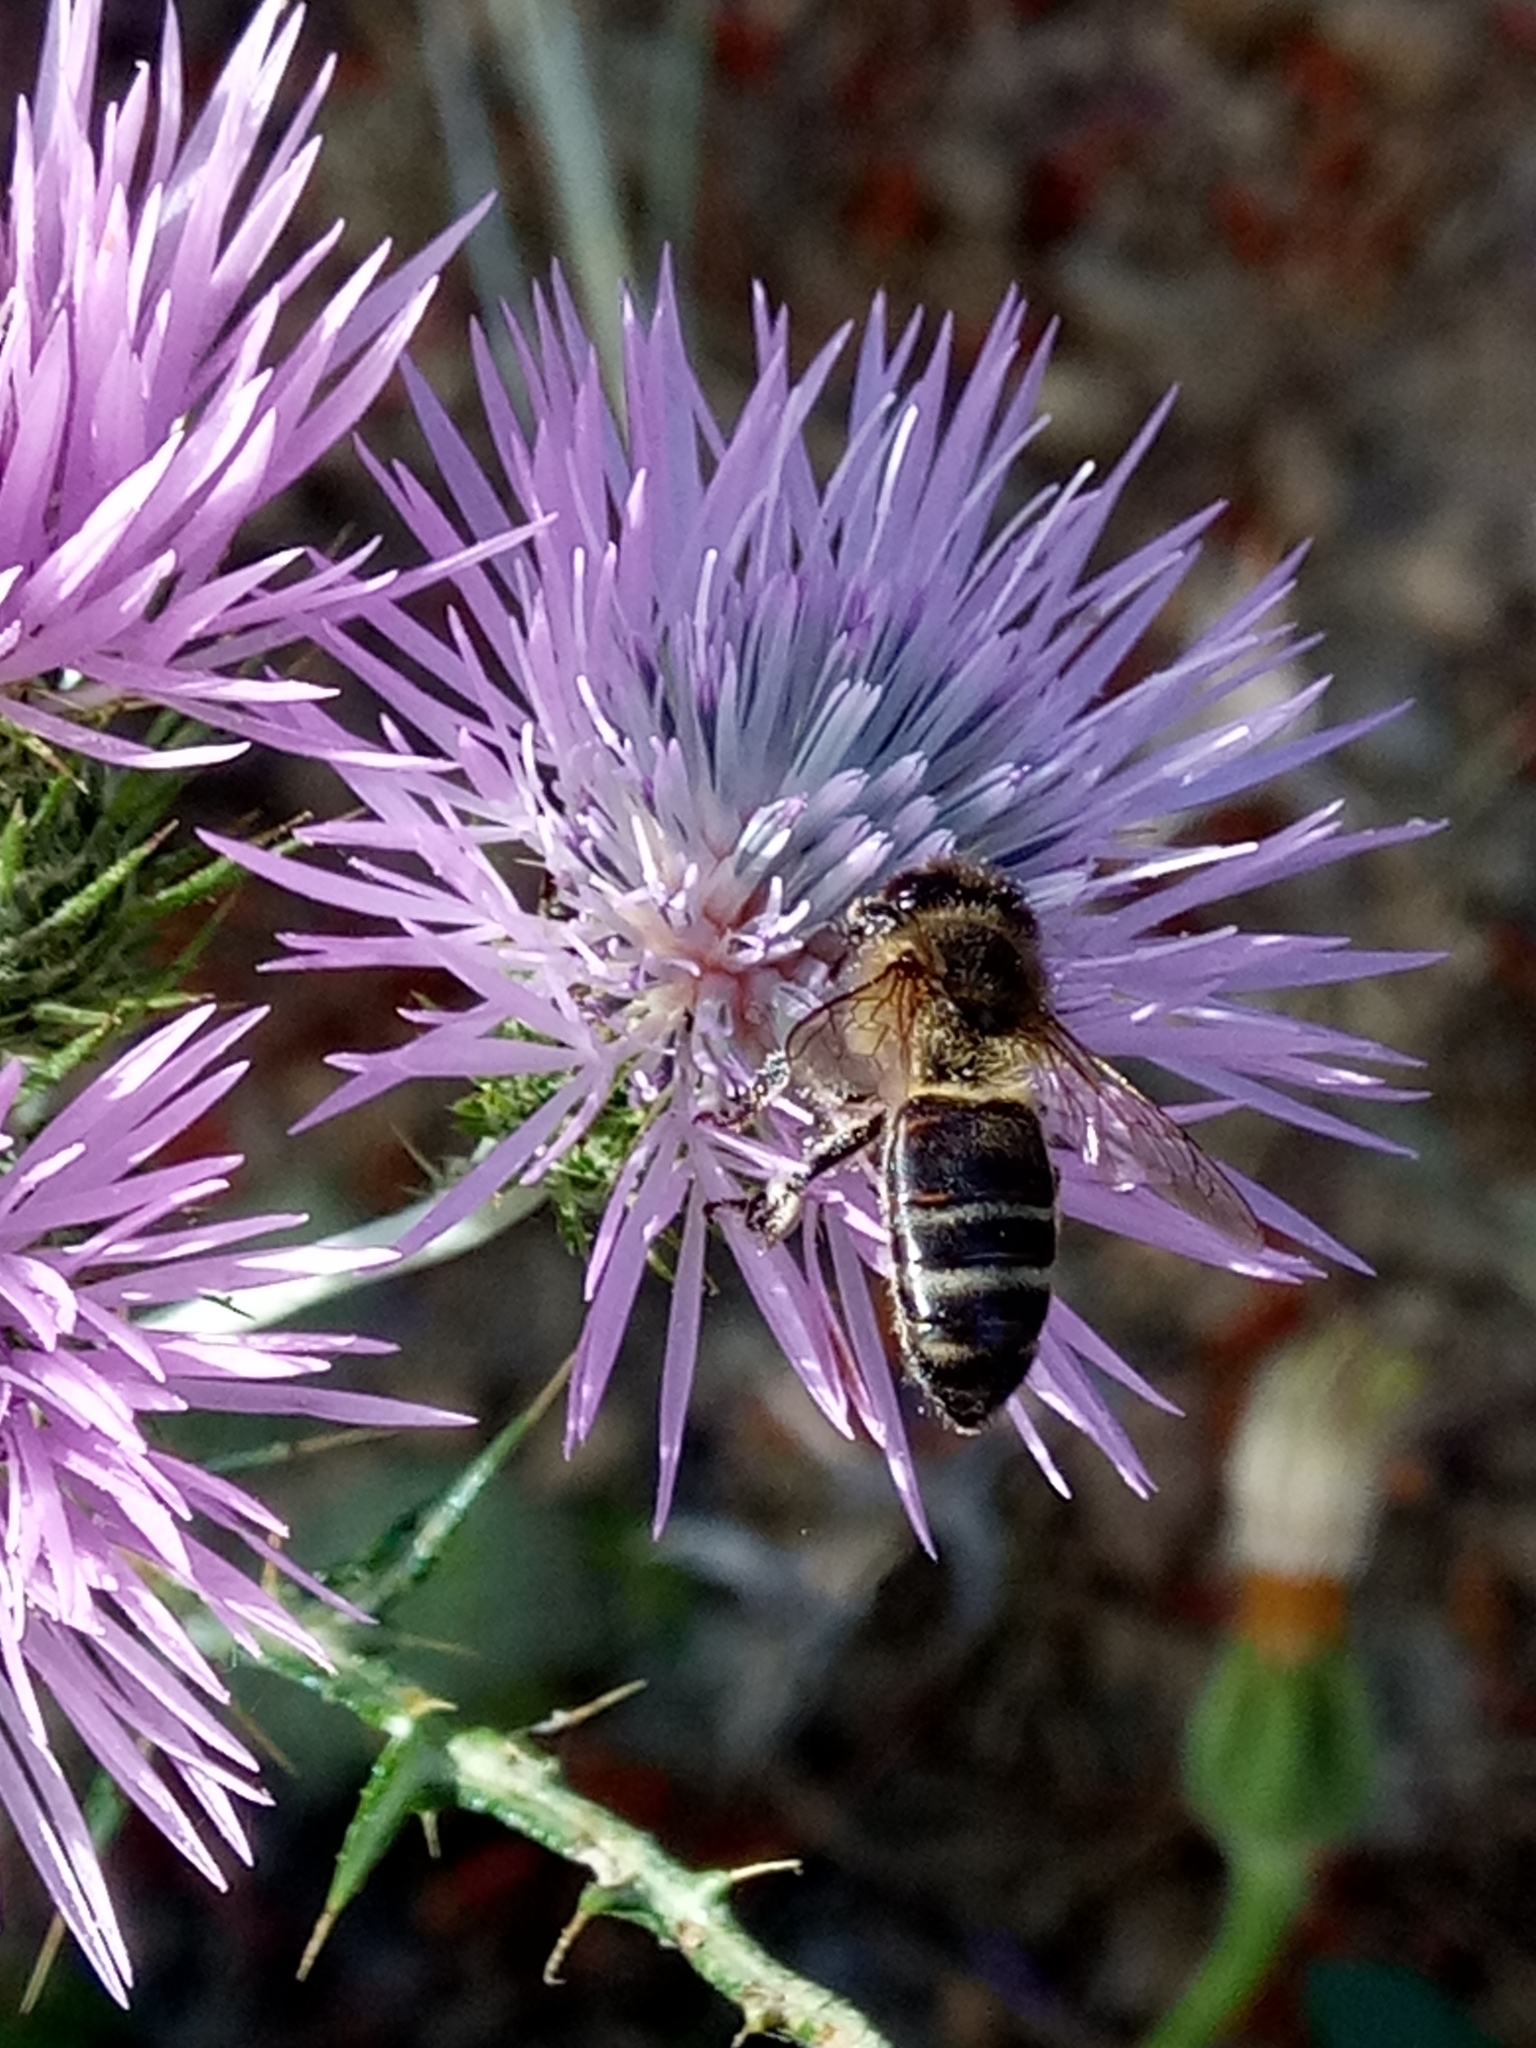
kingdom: Animalia
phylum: Arthropoda
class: Insecta
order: Hymenoptera
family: Apidae
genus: Apis
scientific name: Apis mellifera
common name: Honey bee
